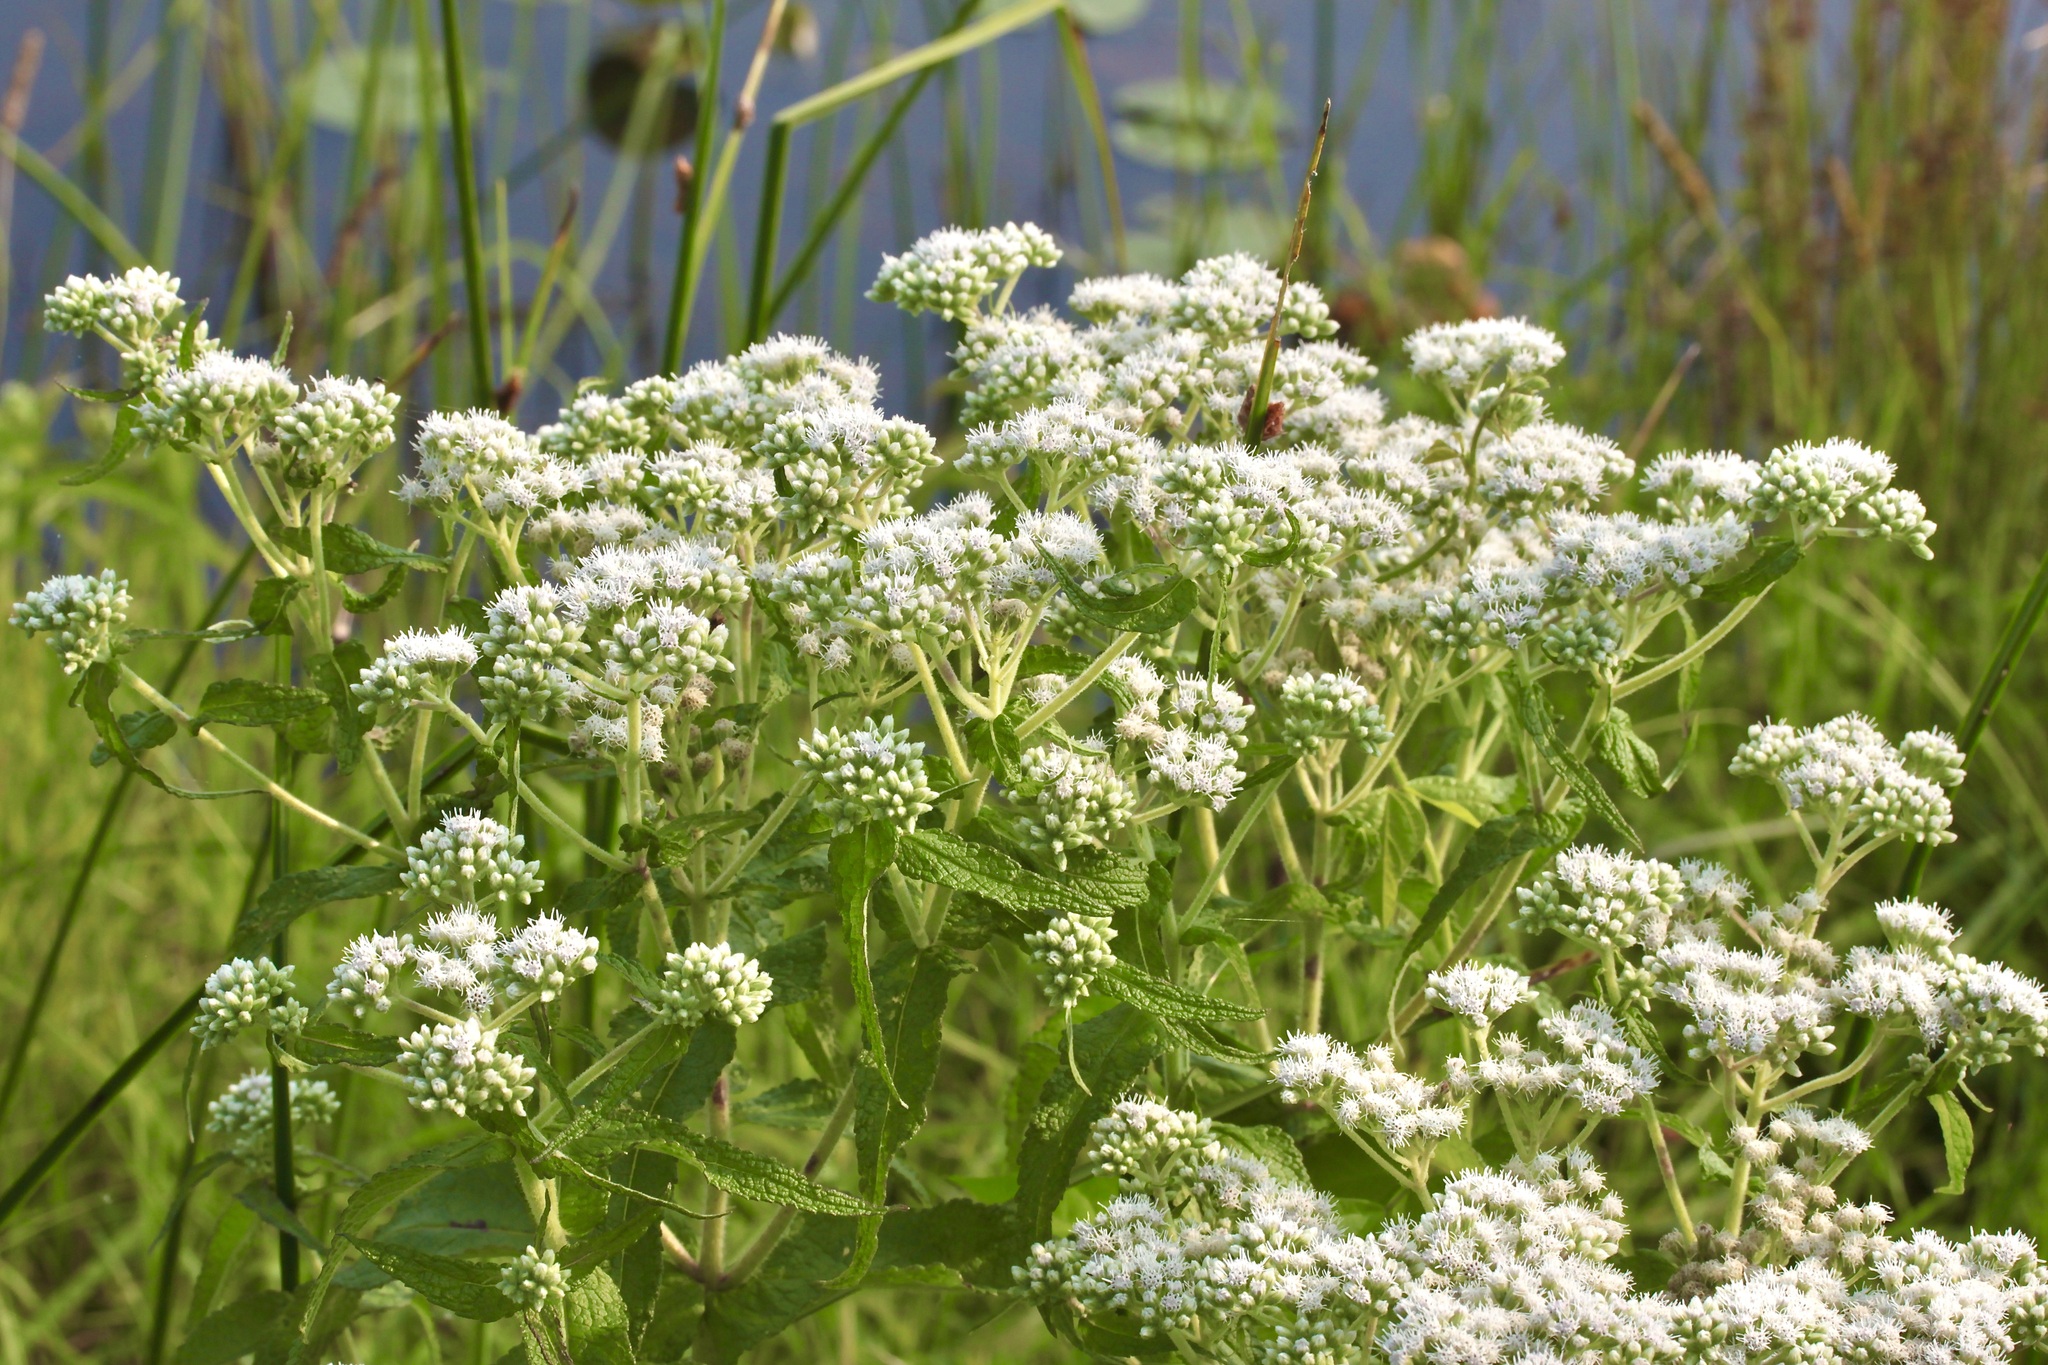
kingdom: Plantae
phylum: Tracheophyta
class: Magnoliopsida
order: Asterales
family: Asteraceae
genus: Eupatorium
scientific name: Eupatorium perfoliatum
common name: Boneset
